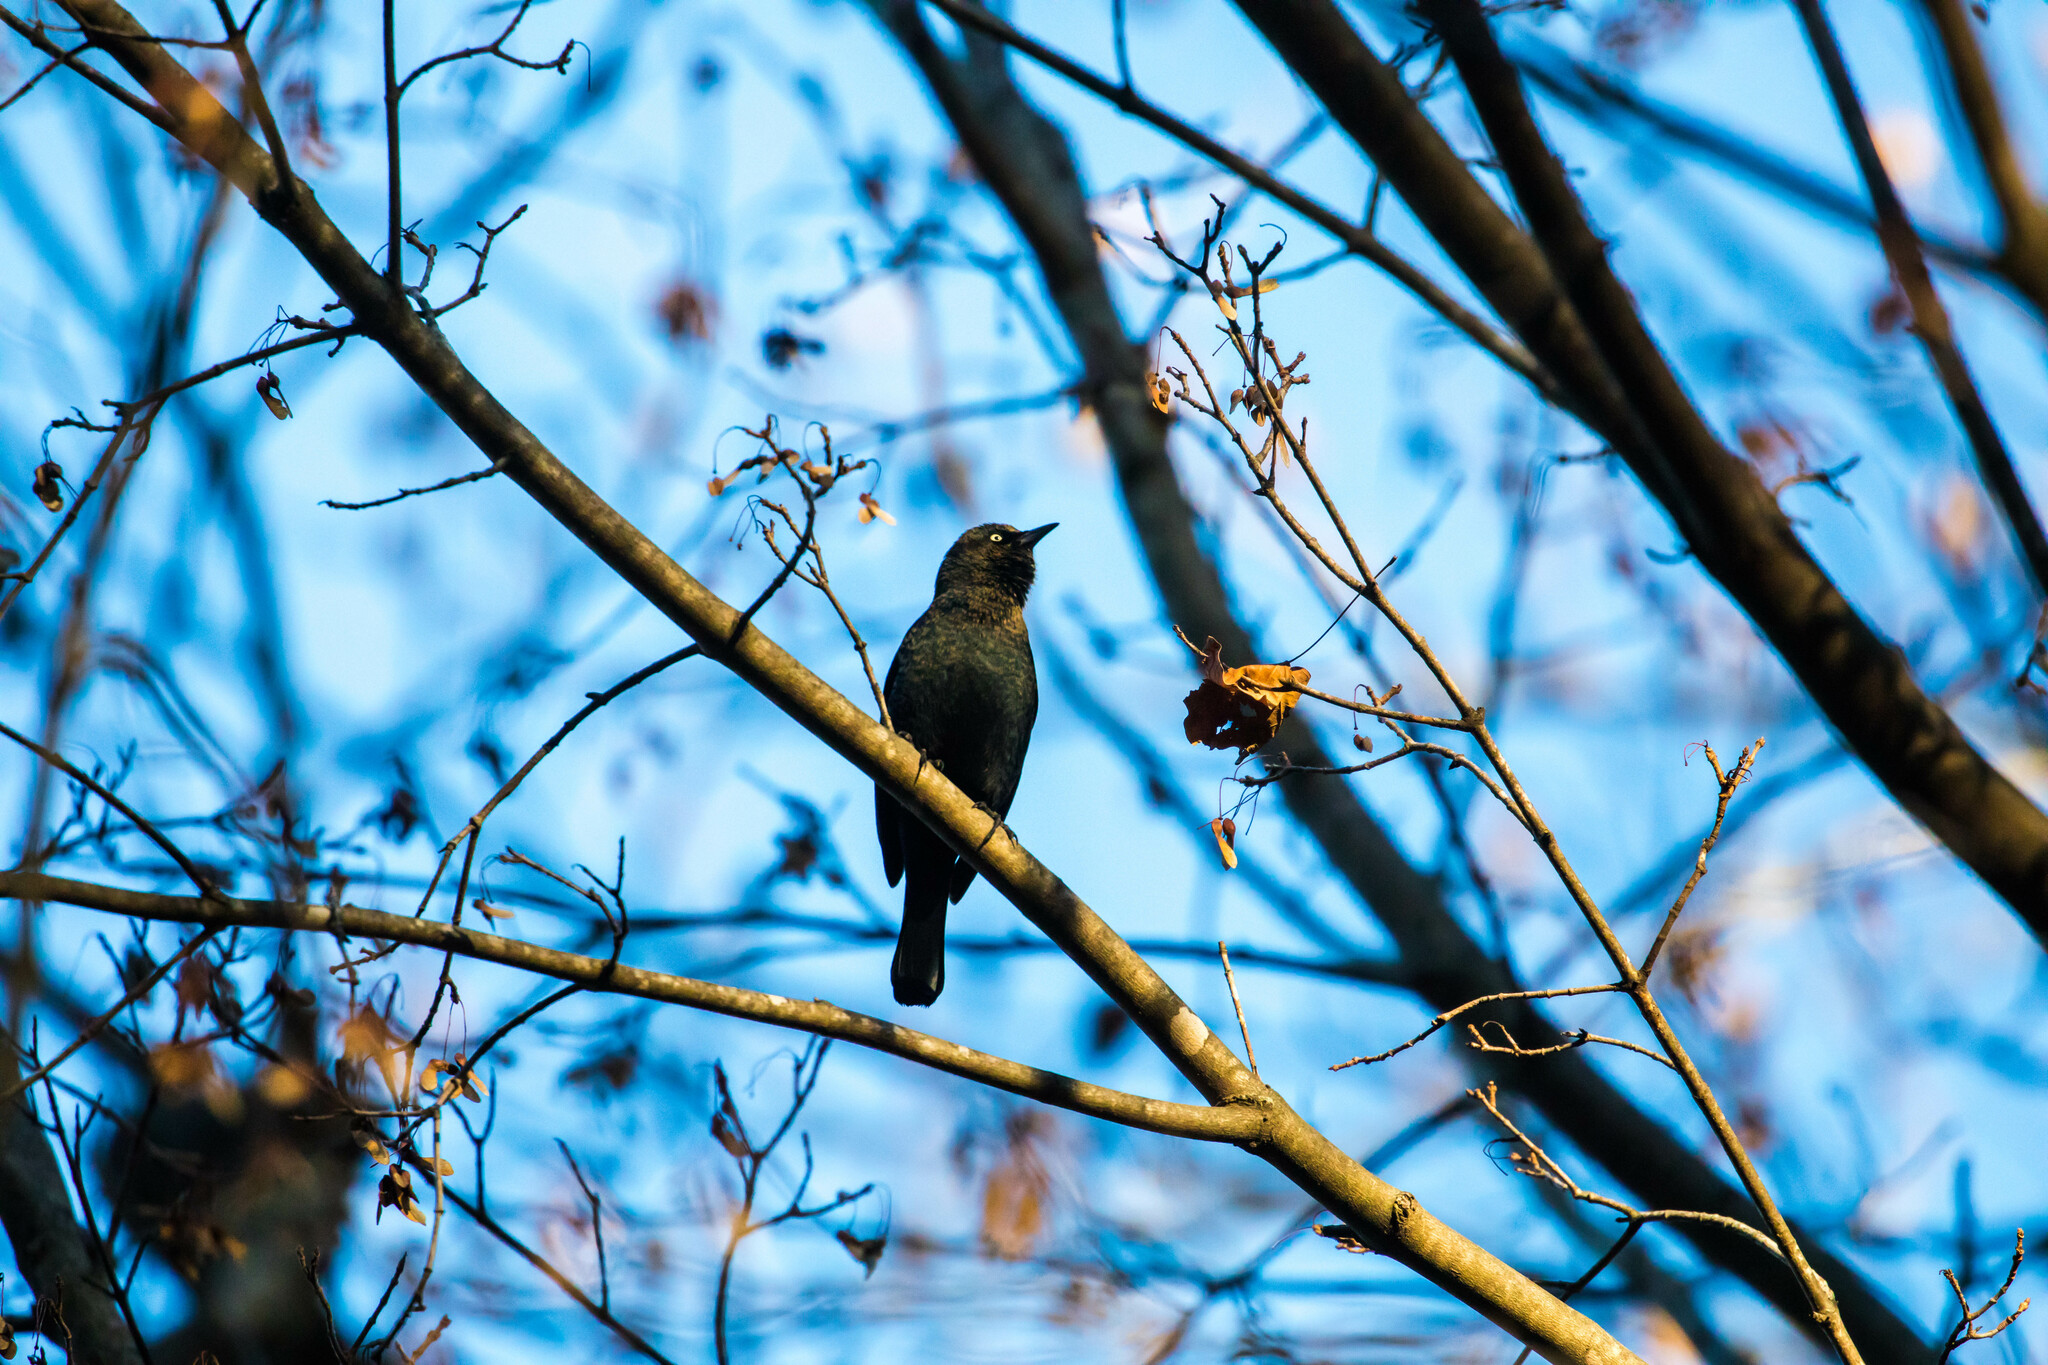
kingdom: Animalia
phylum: Chordata
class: Aves
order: Passeriformes
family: Icteridae
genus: Euphagus
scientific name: Euphagus carolinus
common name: Rusty blackbird
